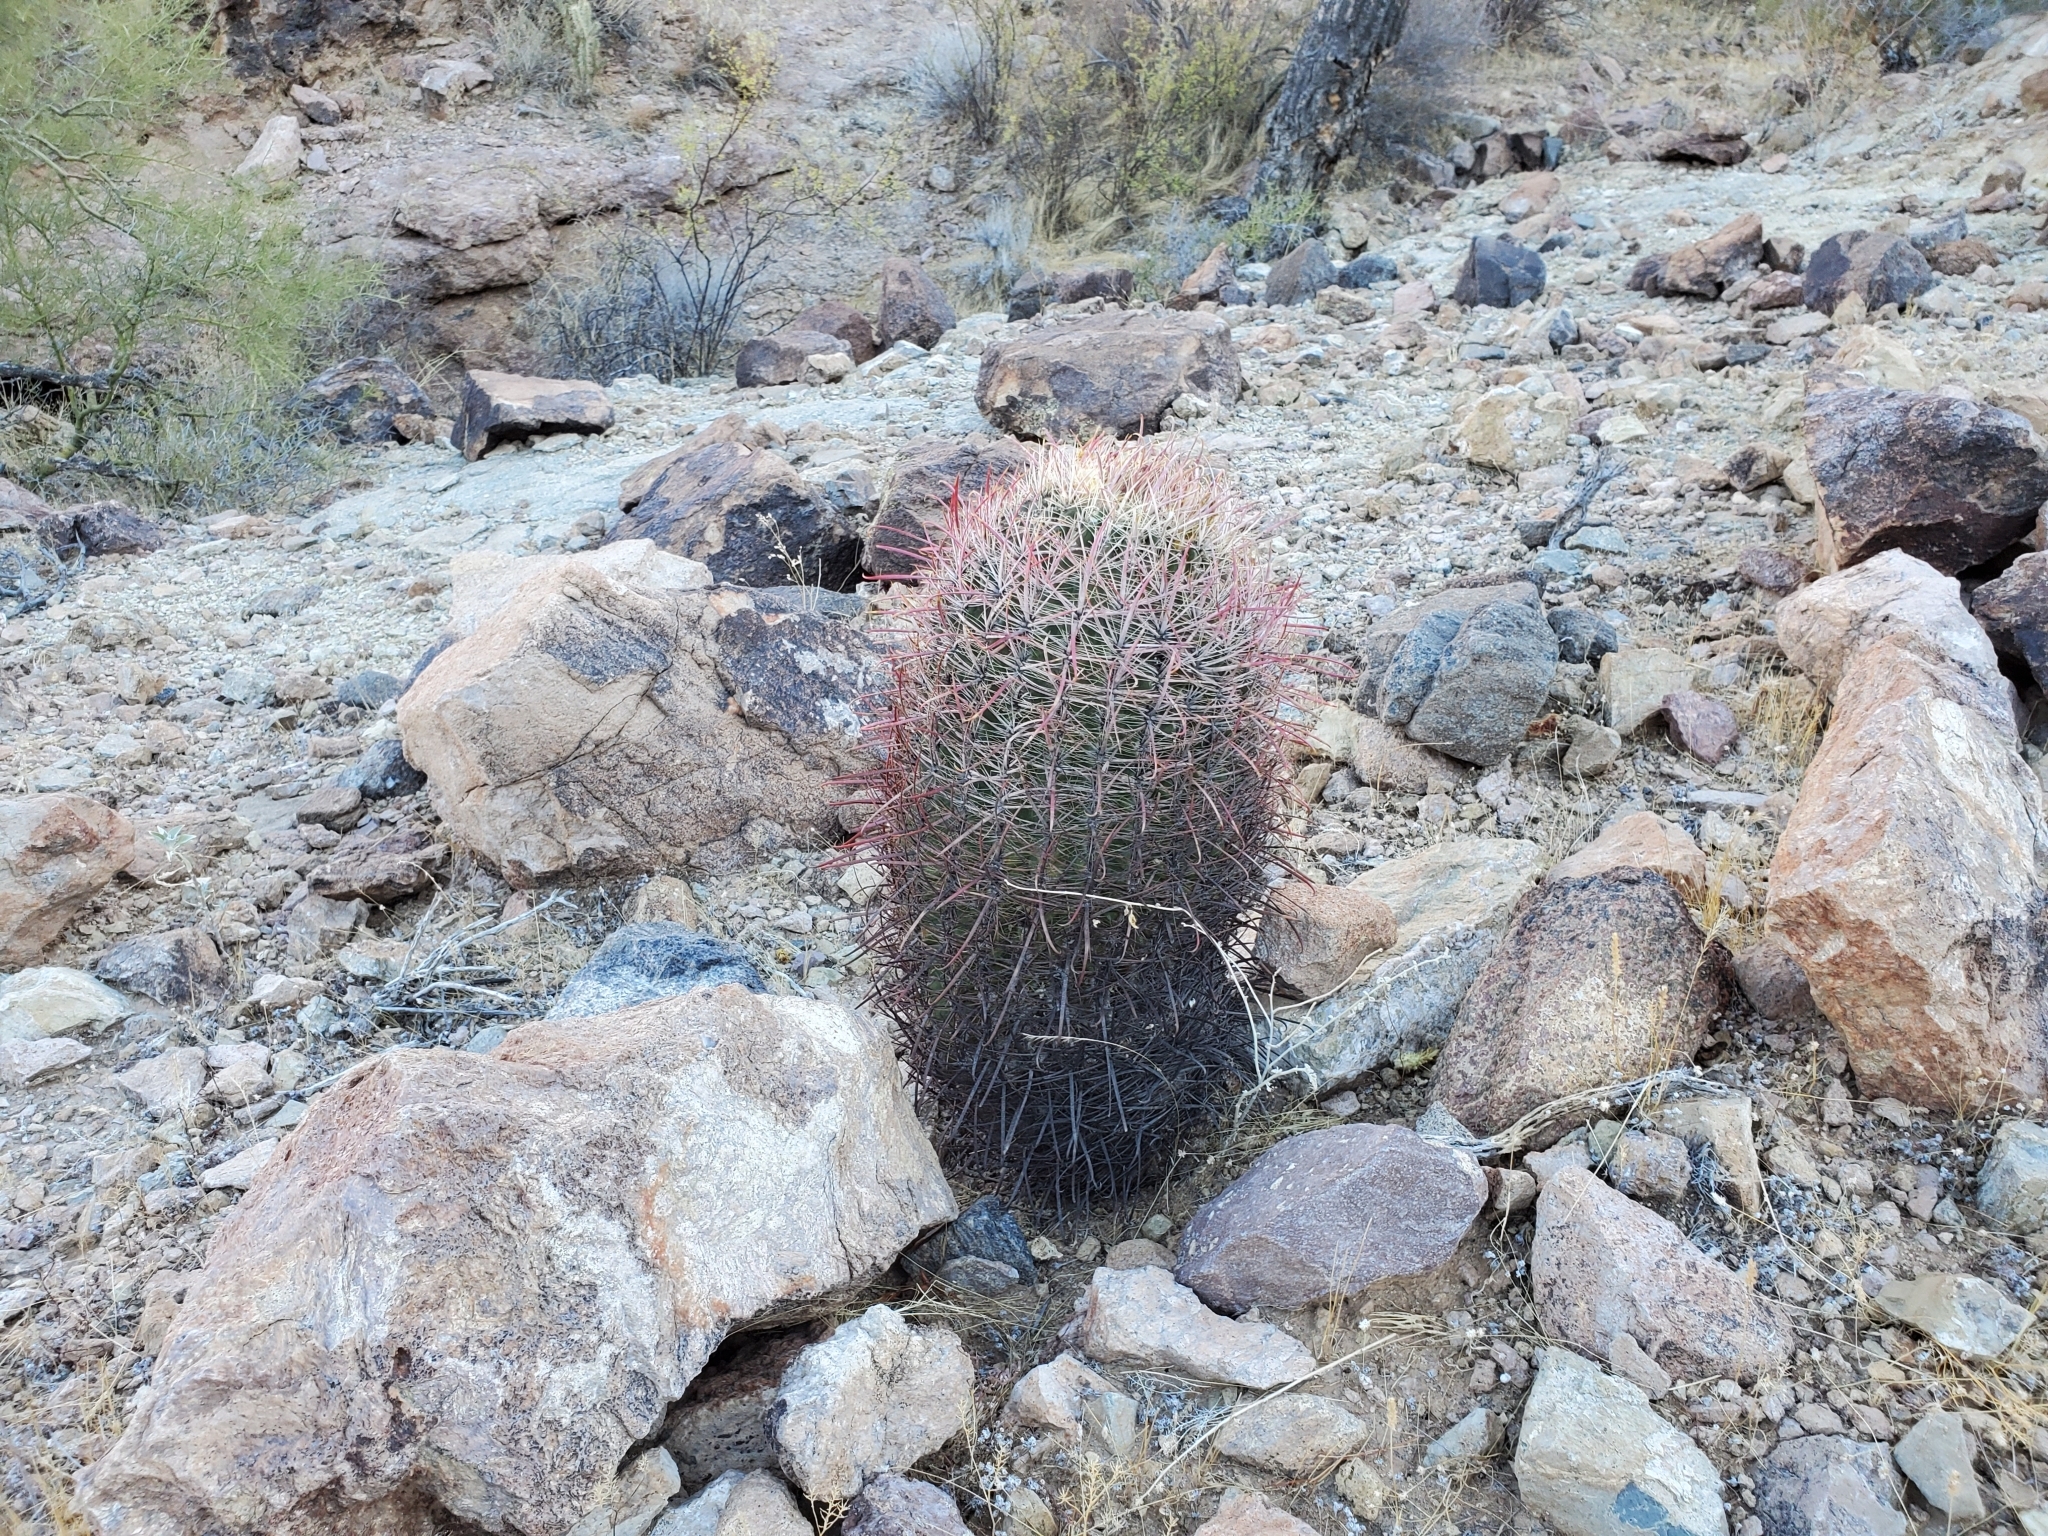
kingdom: Plantae
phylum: Tracheophyta
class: Magnoliopsida
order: Caryophyllales
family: Cactaceae
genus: Ferocactus
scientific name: Ferocactus cylindraceus
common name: California barrel cactus
